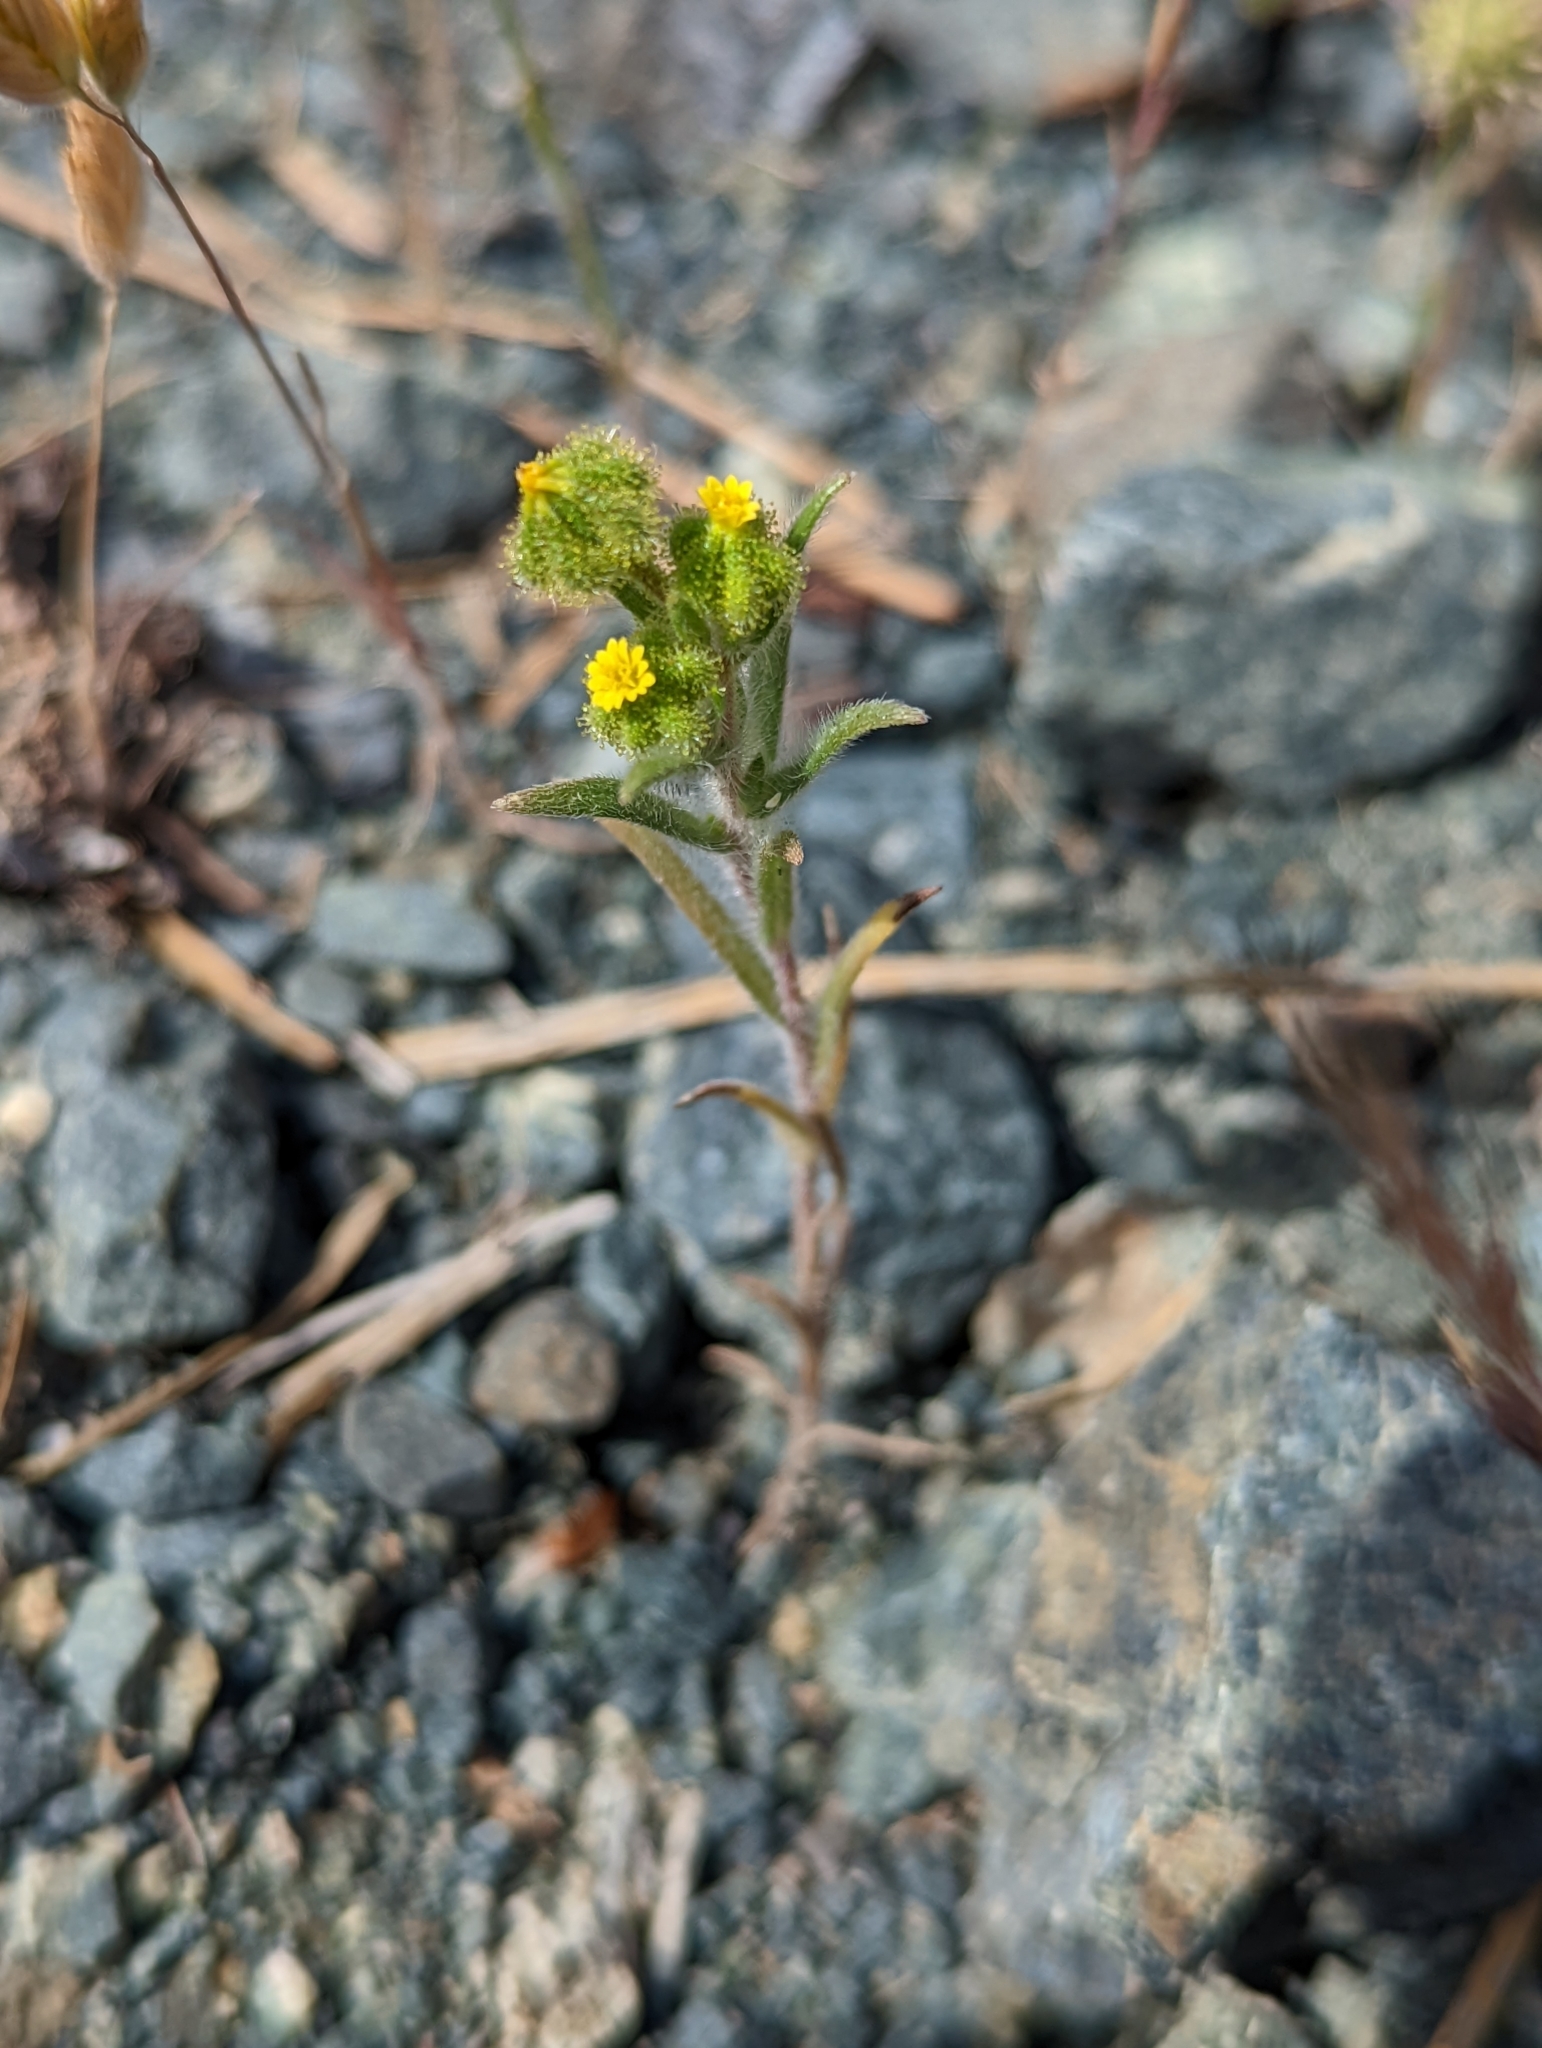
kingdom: Plantae
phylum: Tracheophyta
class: Magnoliopsida
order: Asterales
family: Asteraceae
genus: Madia
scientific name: Madia exigua
